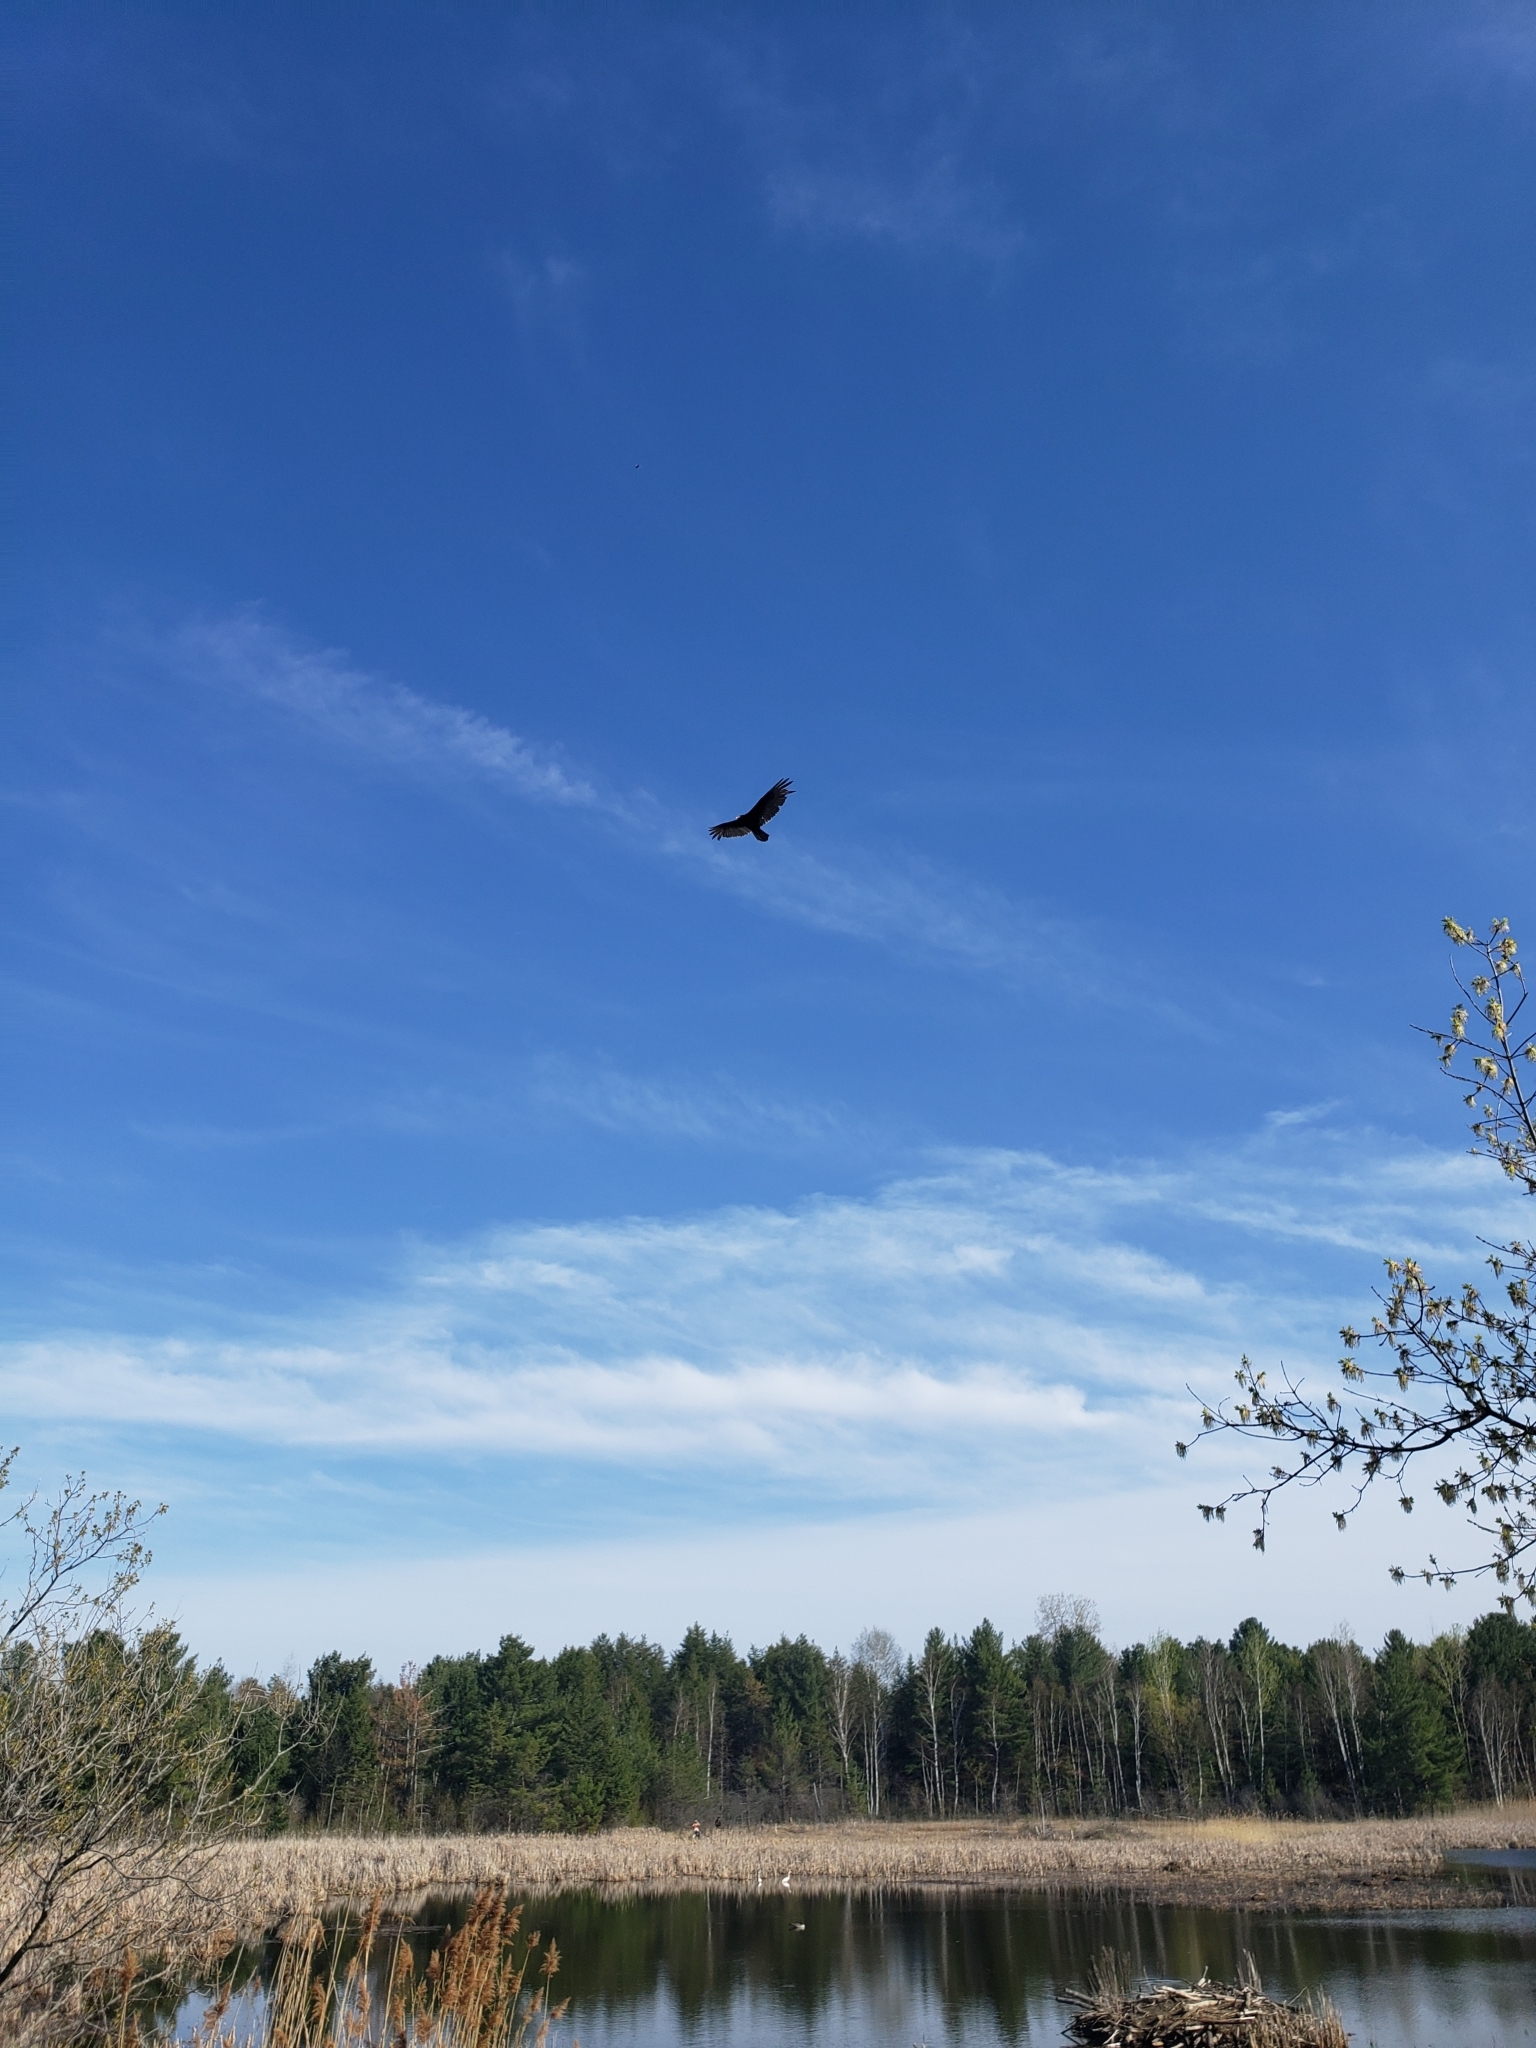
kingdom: Animalia
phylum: Chordata
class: Aves
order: Accipitriformes
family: Cathartidae
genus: Cathartes
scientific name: Cathartes aura
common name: Turkey vulture
